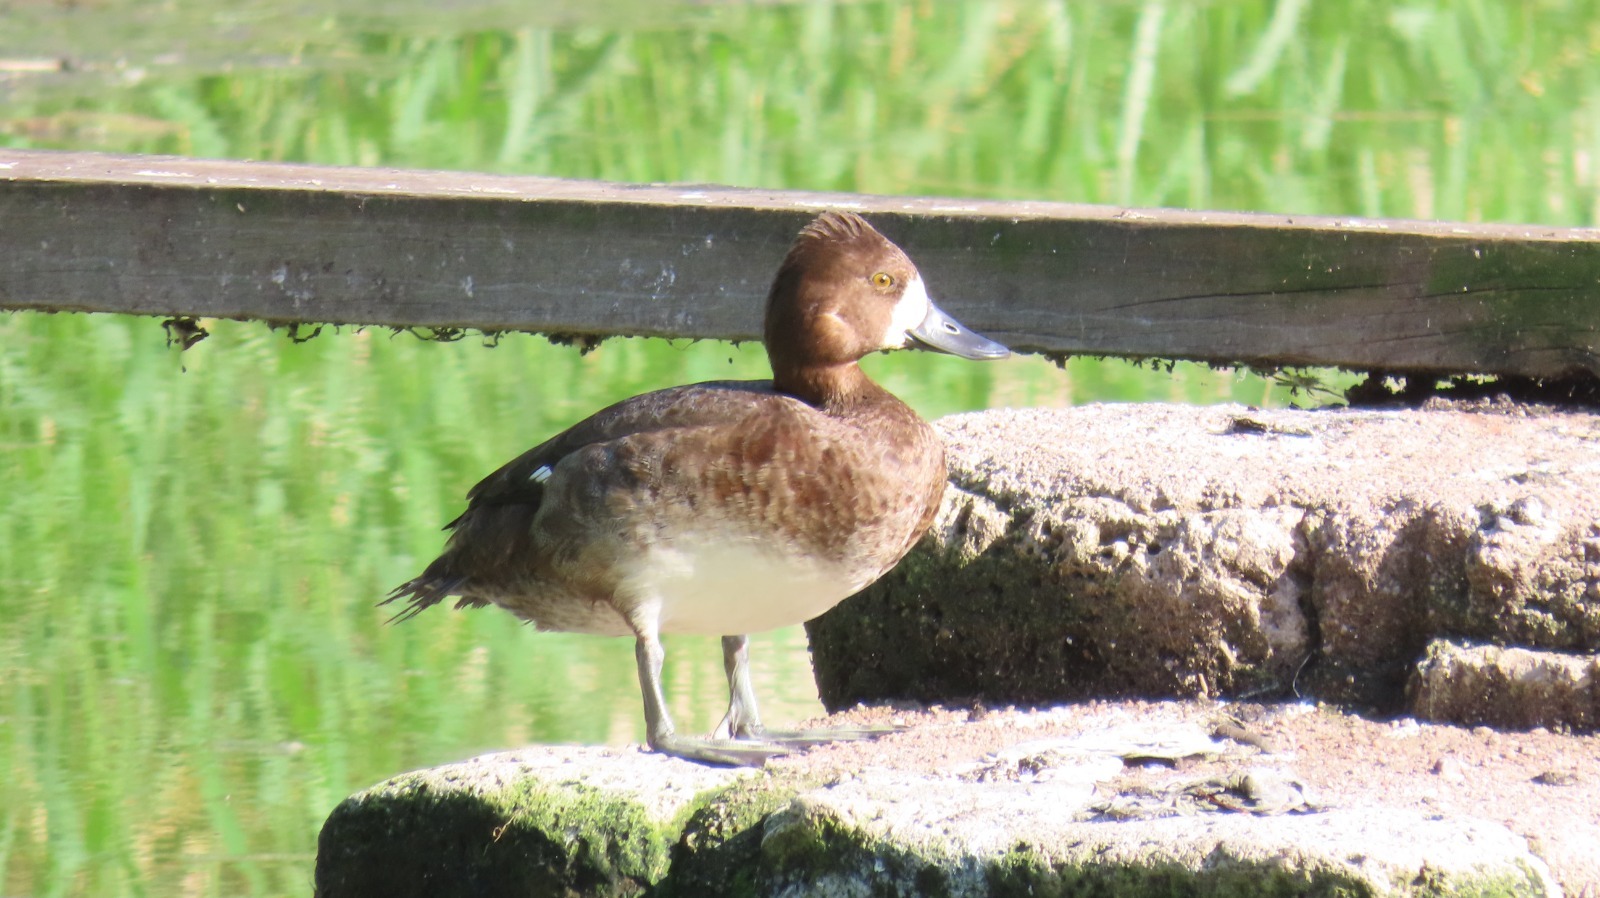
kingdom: Animalia
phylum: Chordata
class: Aves
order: Anseriformes
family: Anatidae
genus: Aythya
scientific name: Aythya affinis
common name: Lesser scaup
